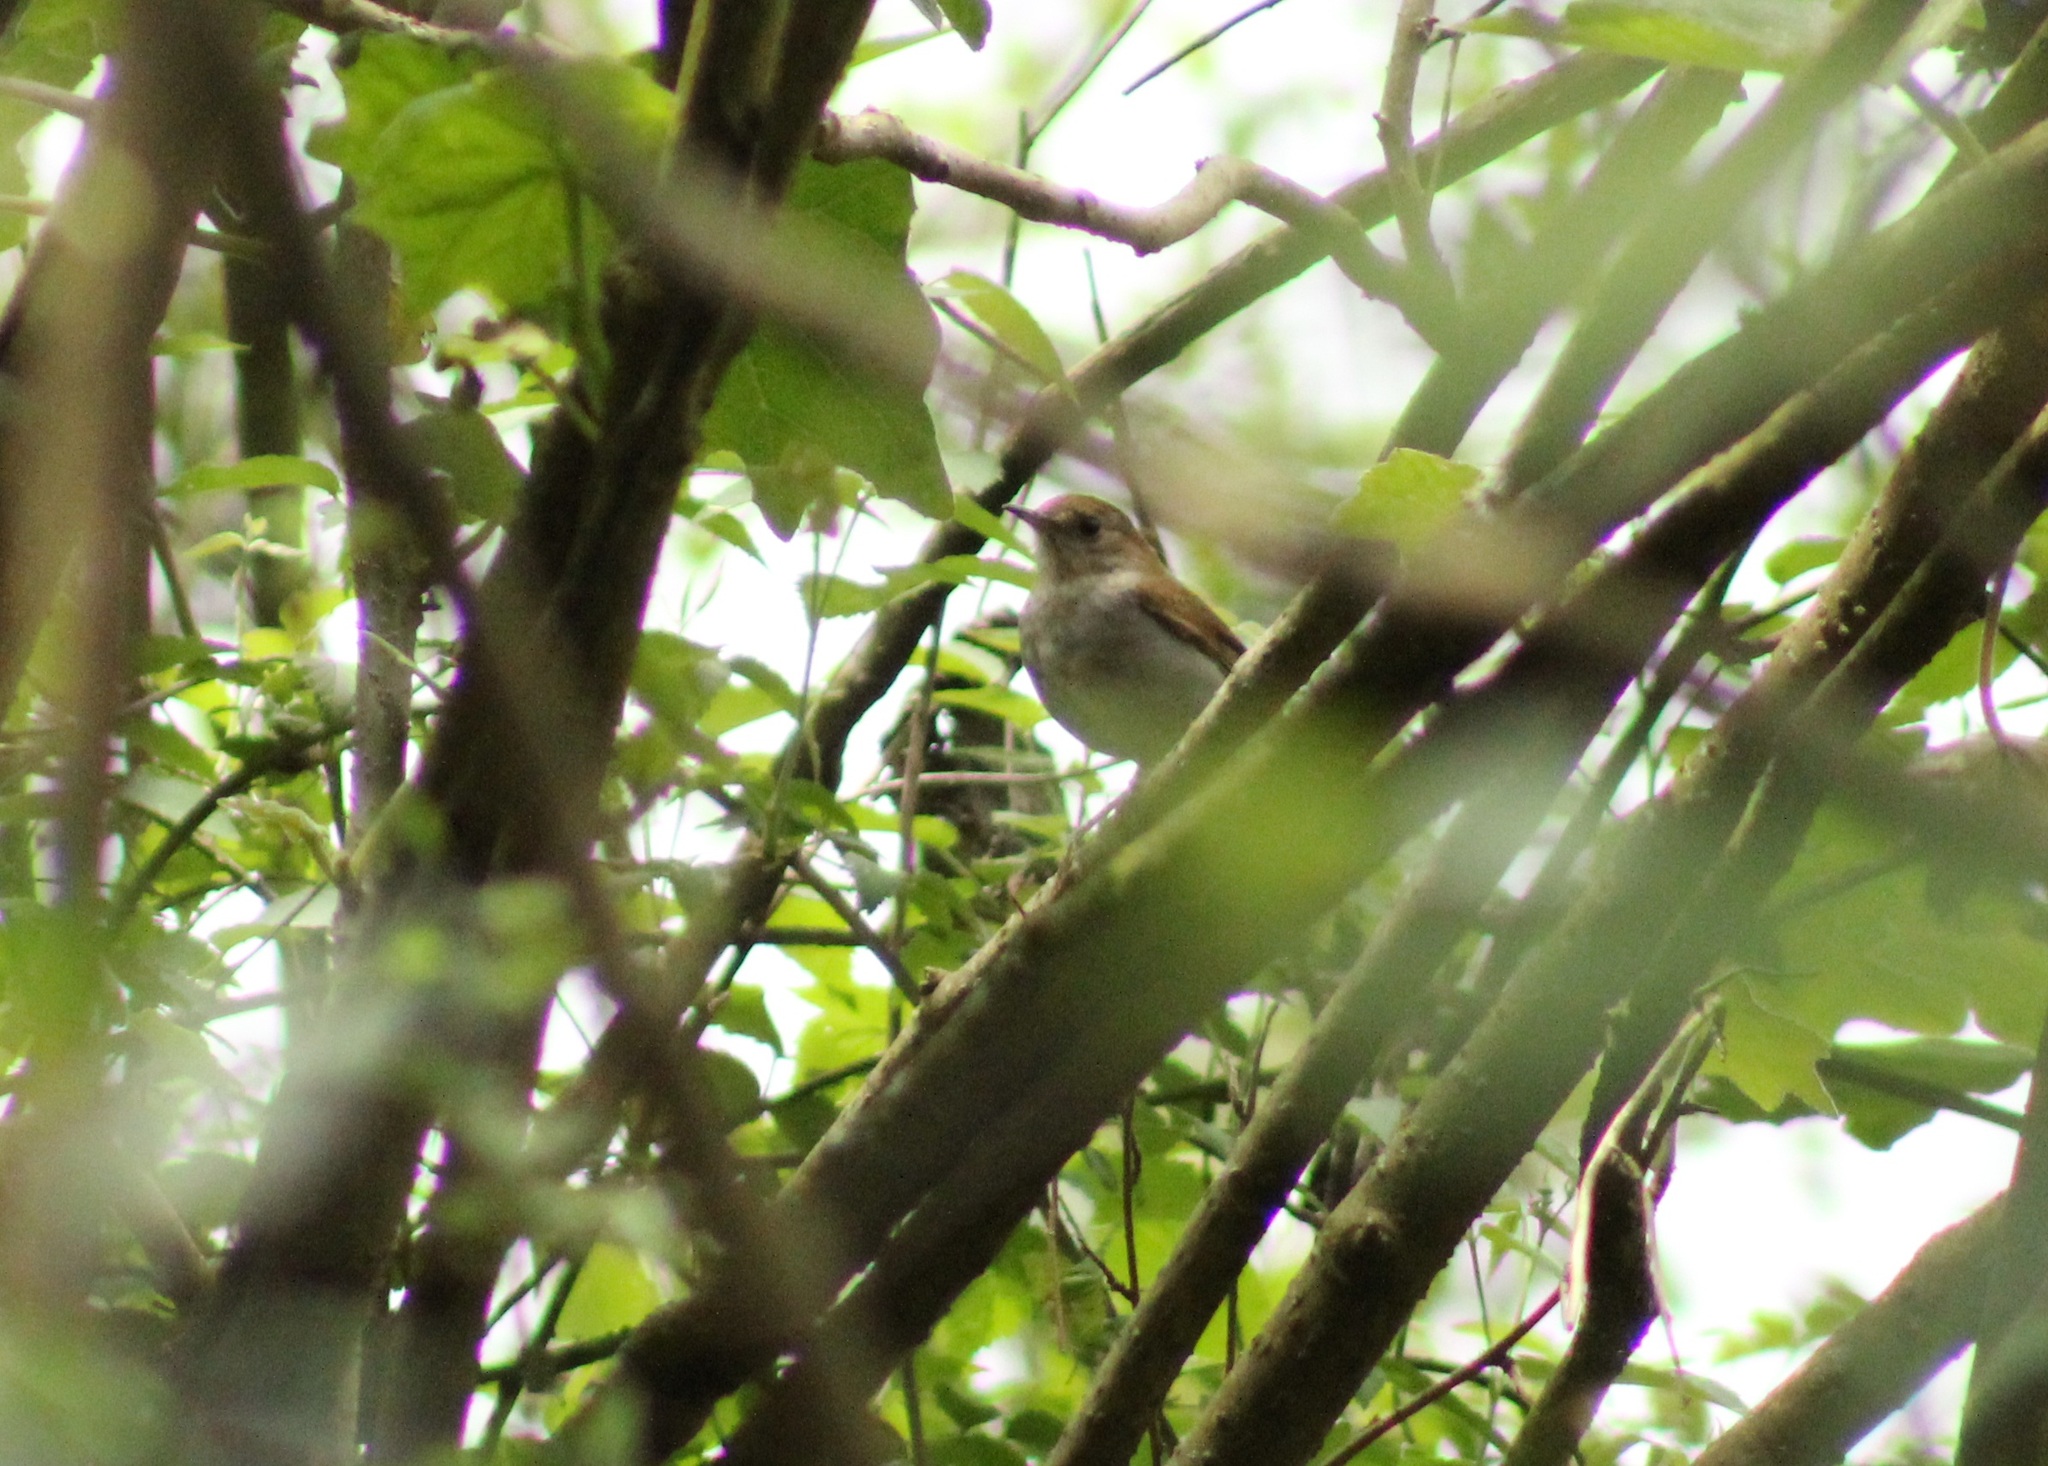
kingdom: Animalia
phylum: Chordata
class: Aves
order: Passeriformes
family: Turdidae
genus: Catharus
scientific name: Catharus occidentalis
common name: Russet nightingale-thrush
